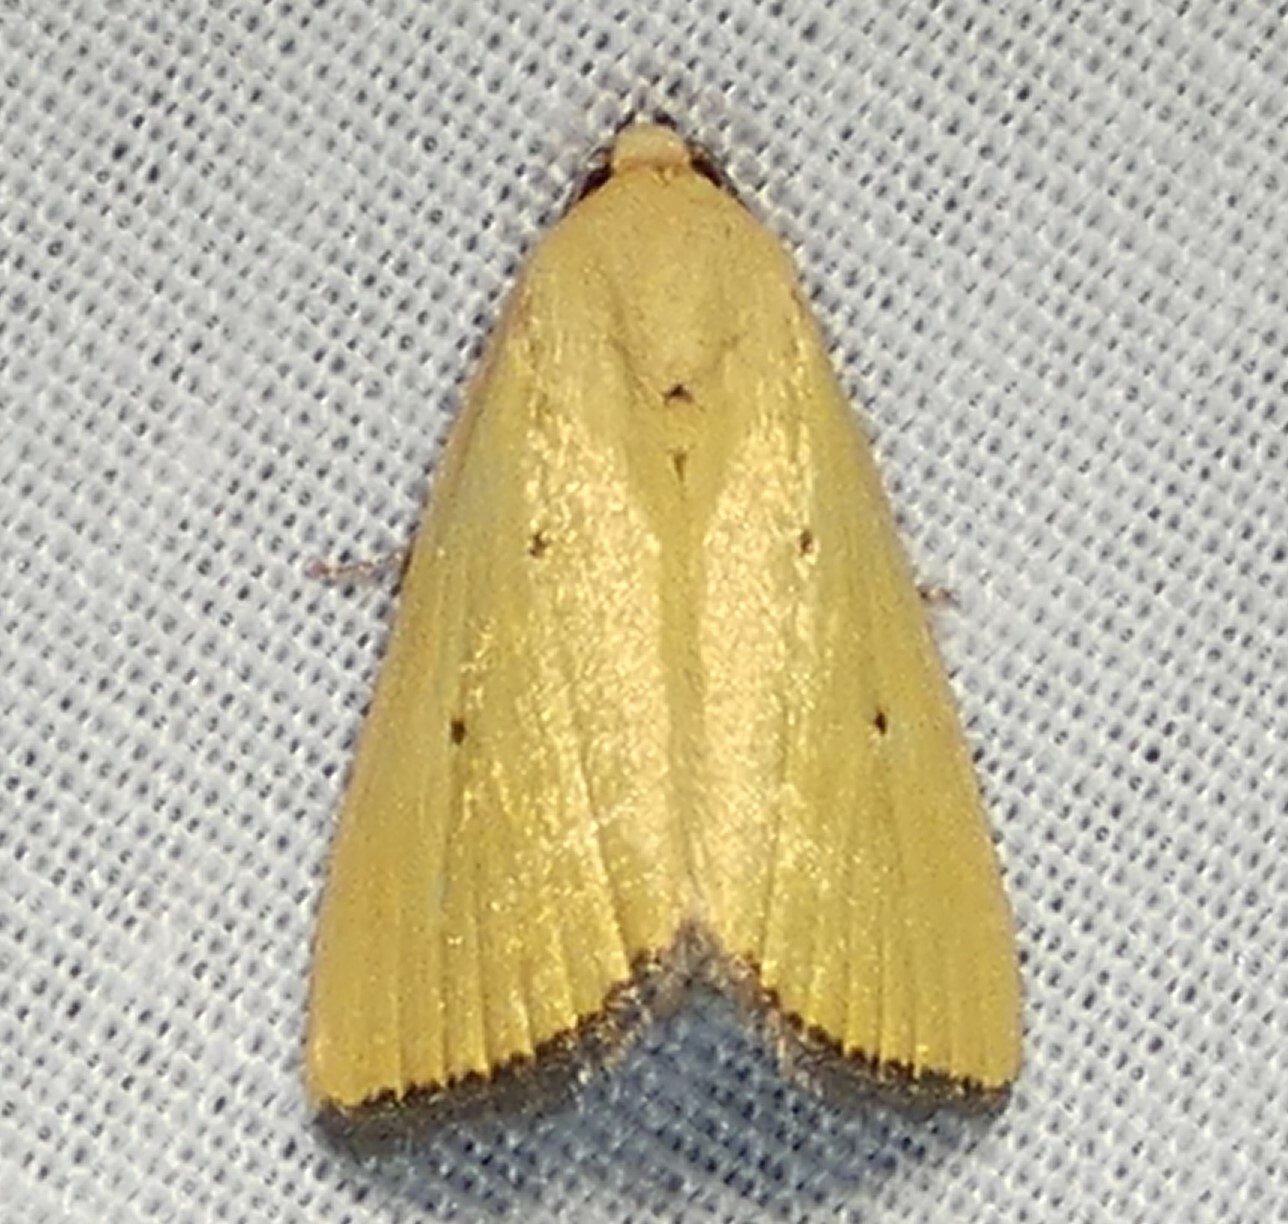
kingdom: Animalia
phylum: Arthropoda
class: Insecta
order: Lepidoptera
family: Noctuidae
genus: Marimatha
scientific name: Marimatha nigrofimbria
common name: Black-bordered lemon moth
